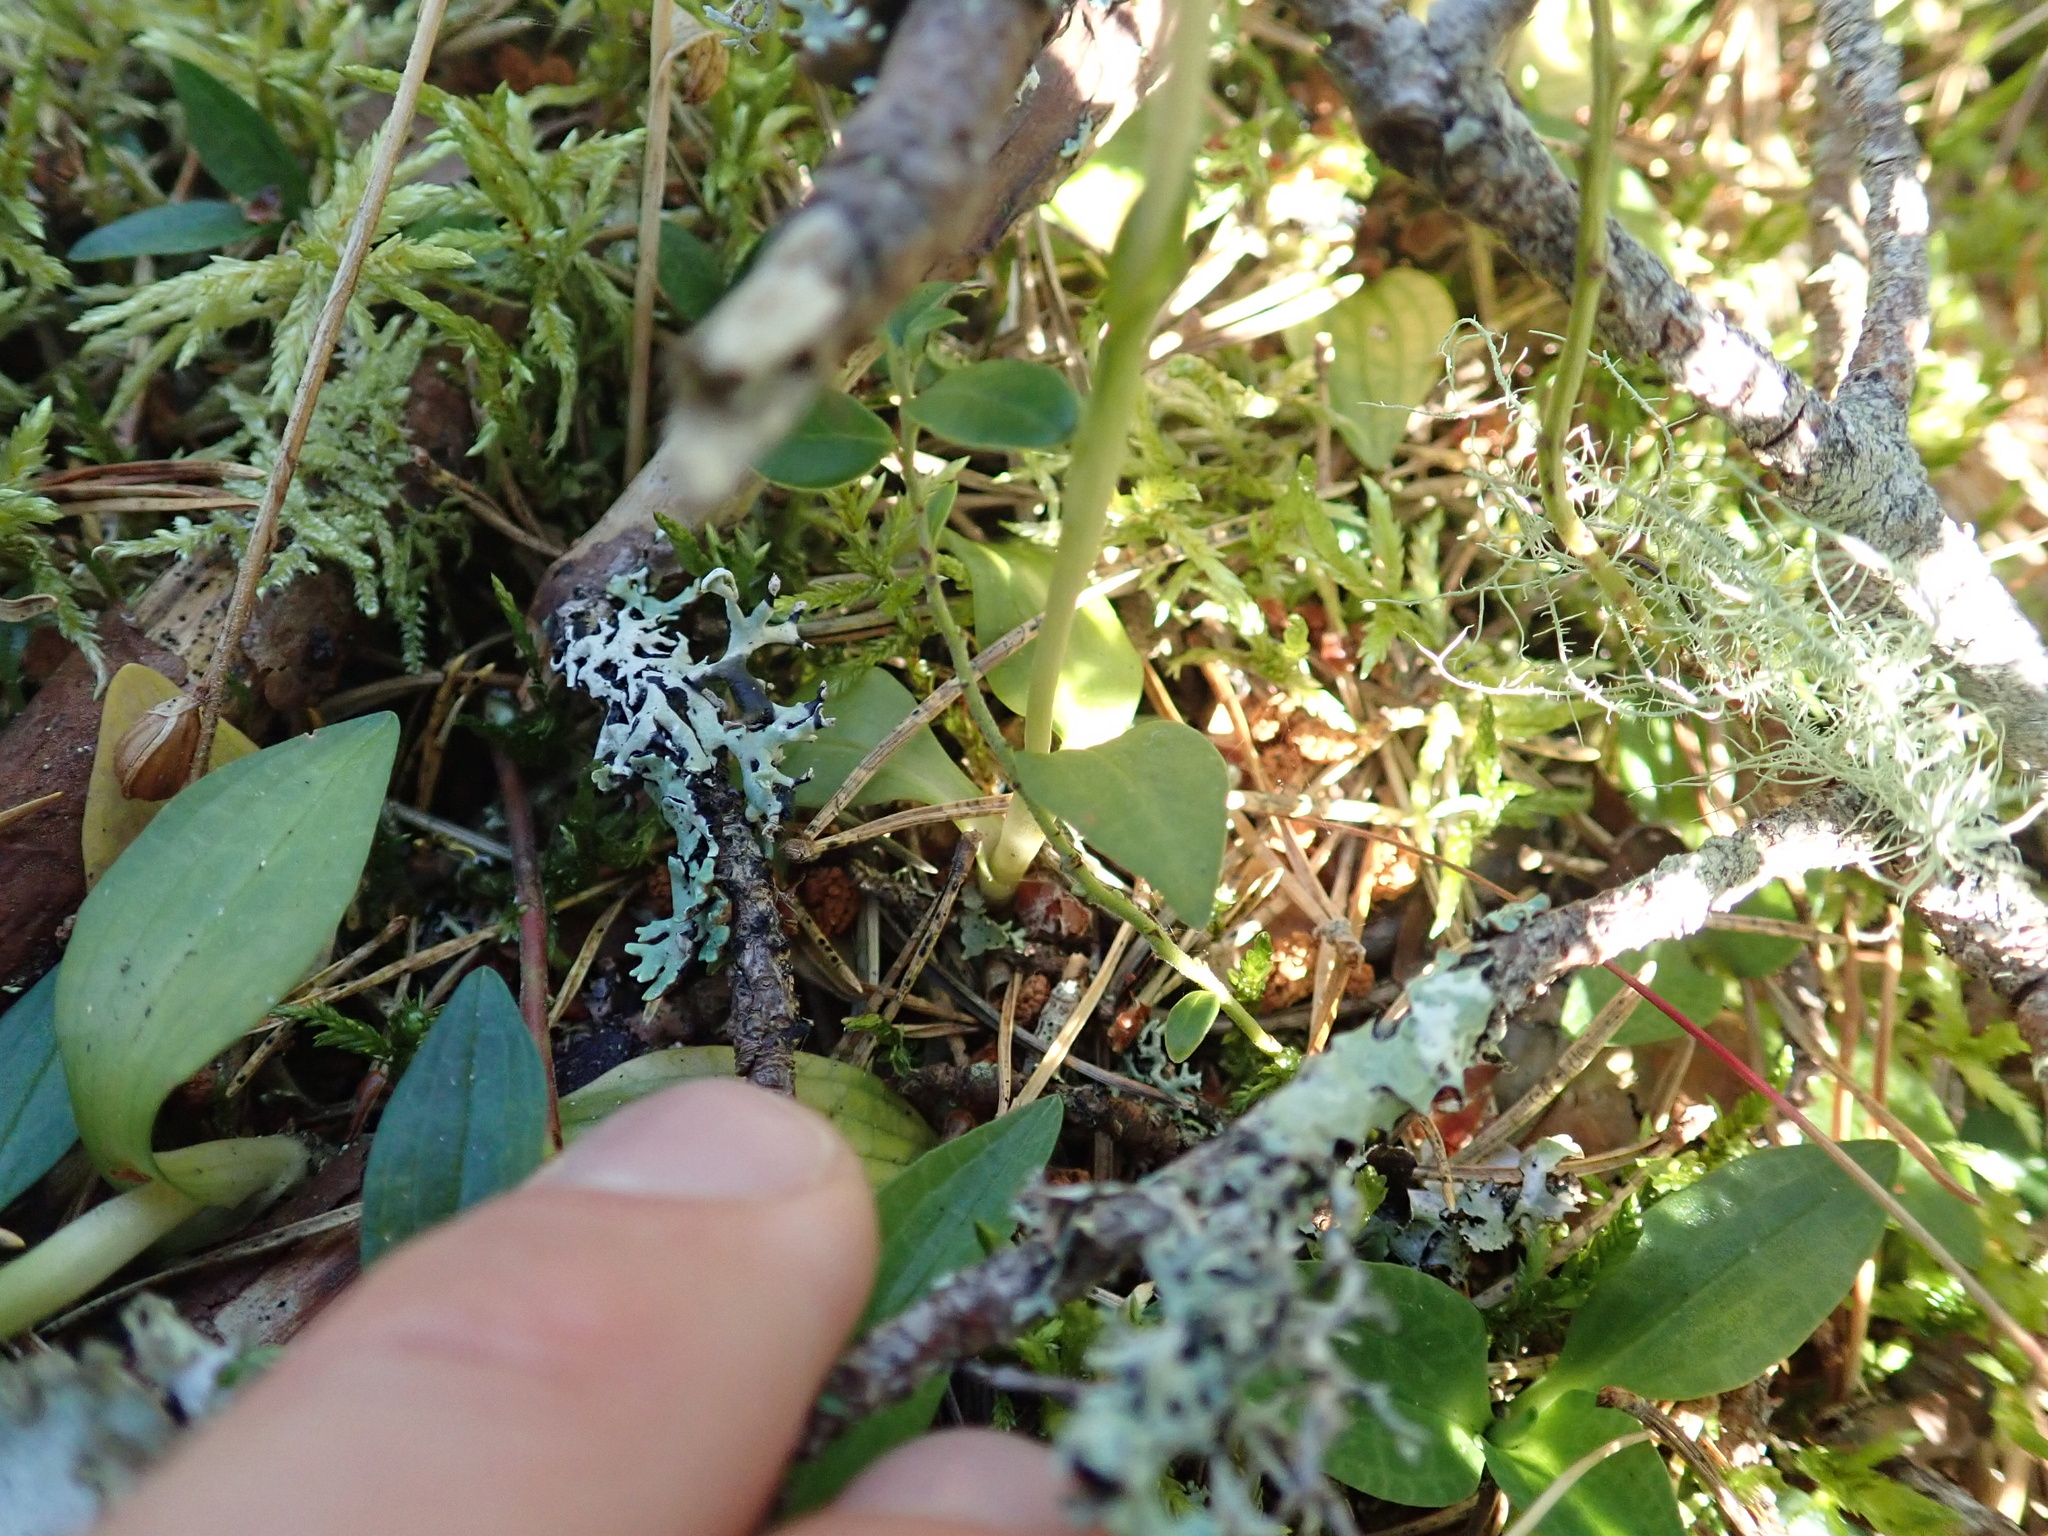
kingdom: Plantae
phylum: Tracheophyta
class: Liliopsida
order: Asparagales
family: Orchidaceae
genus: Goodyera
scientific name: Goodyera repens
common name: Creeping lady's-tresses
